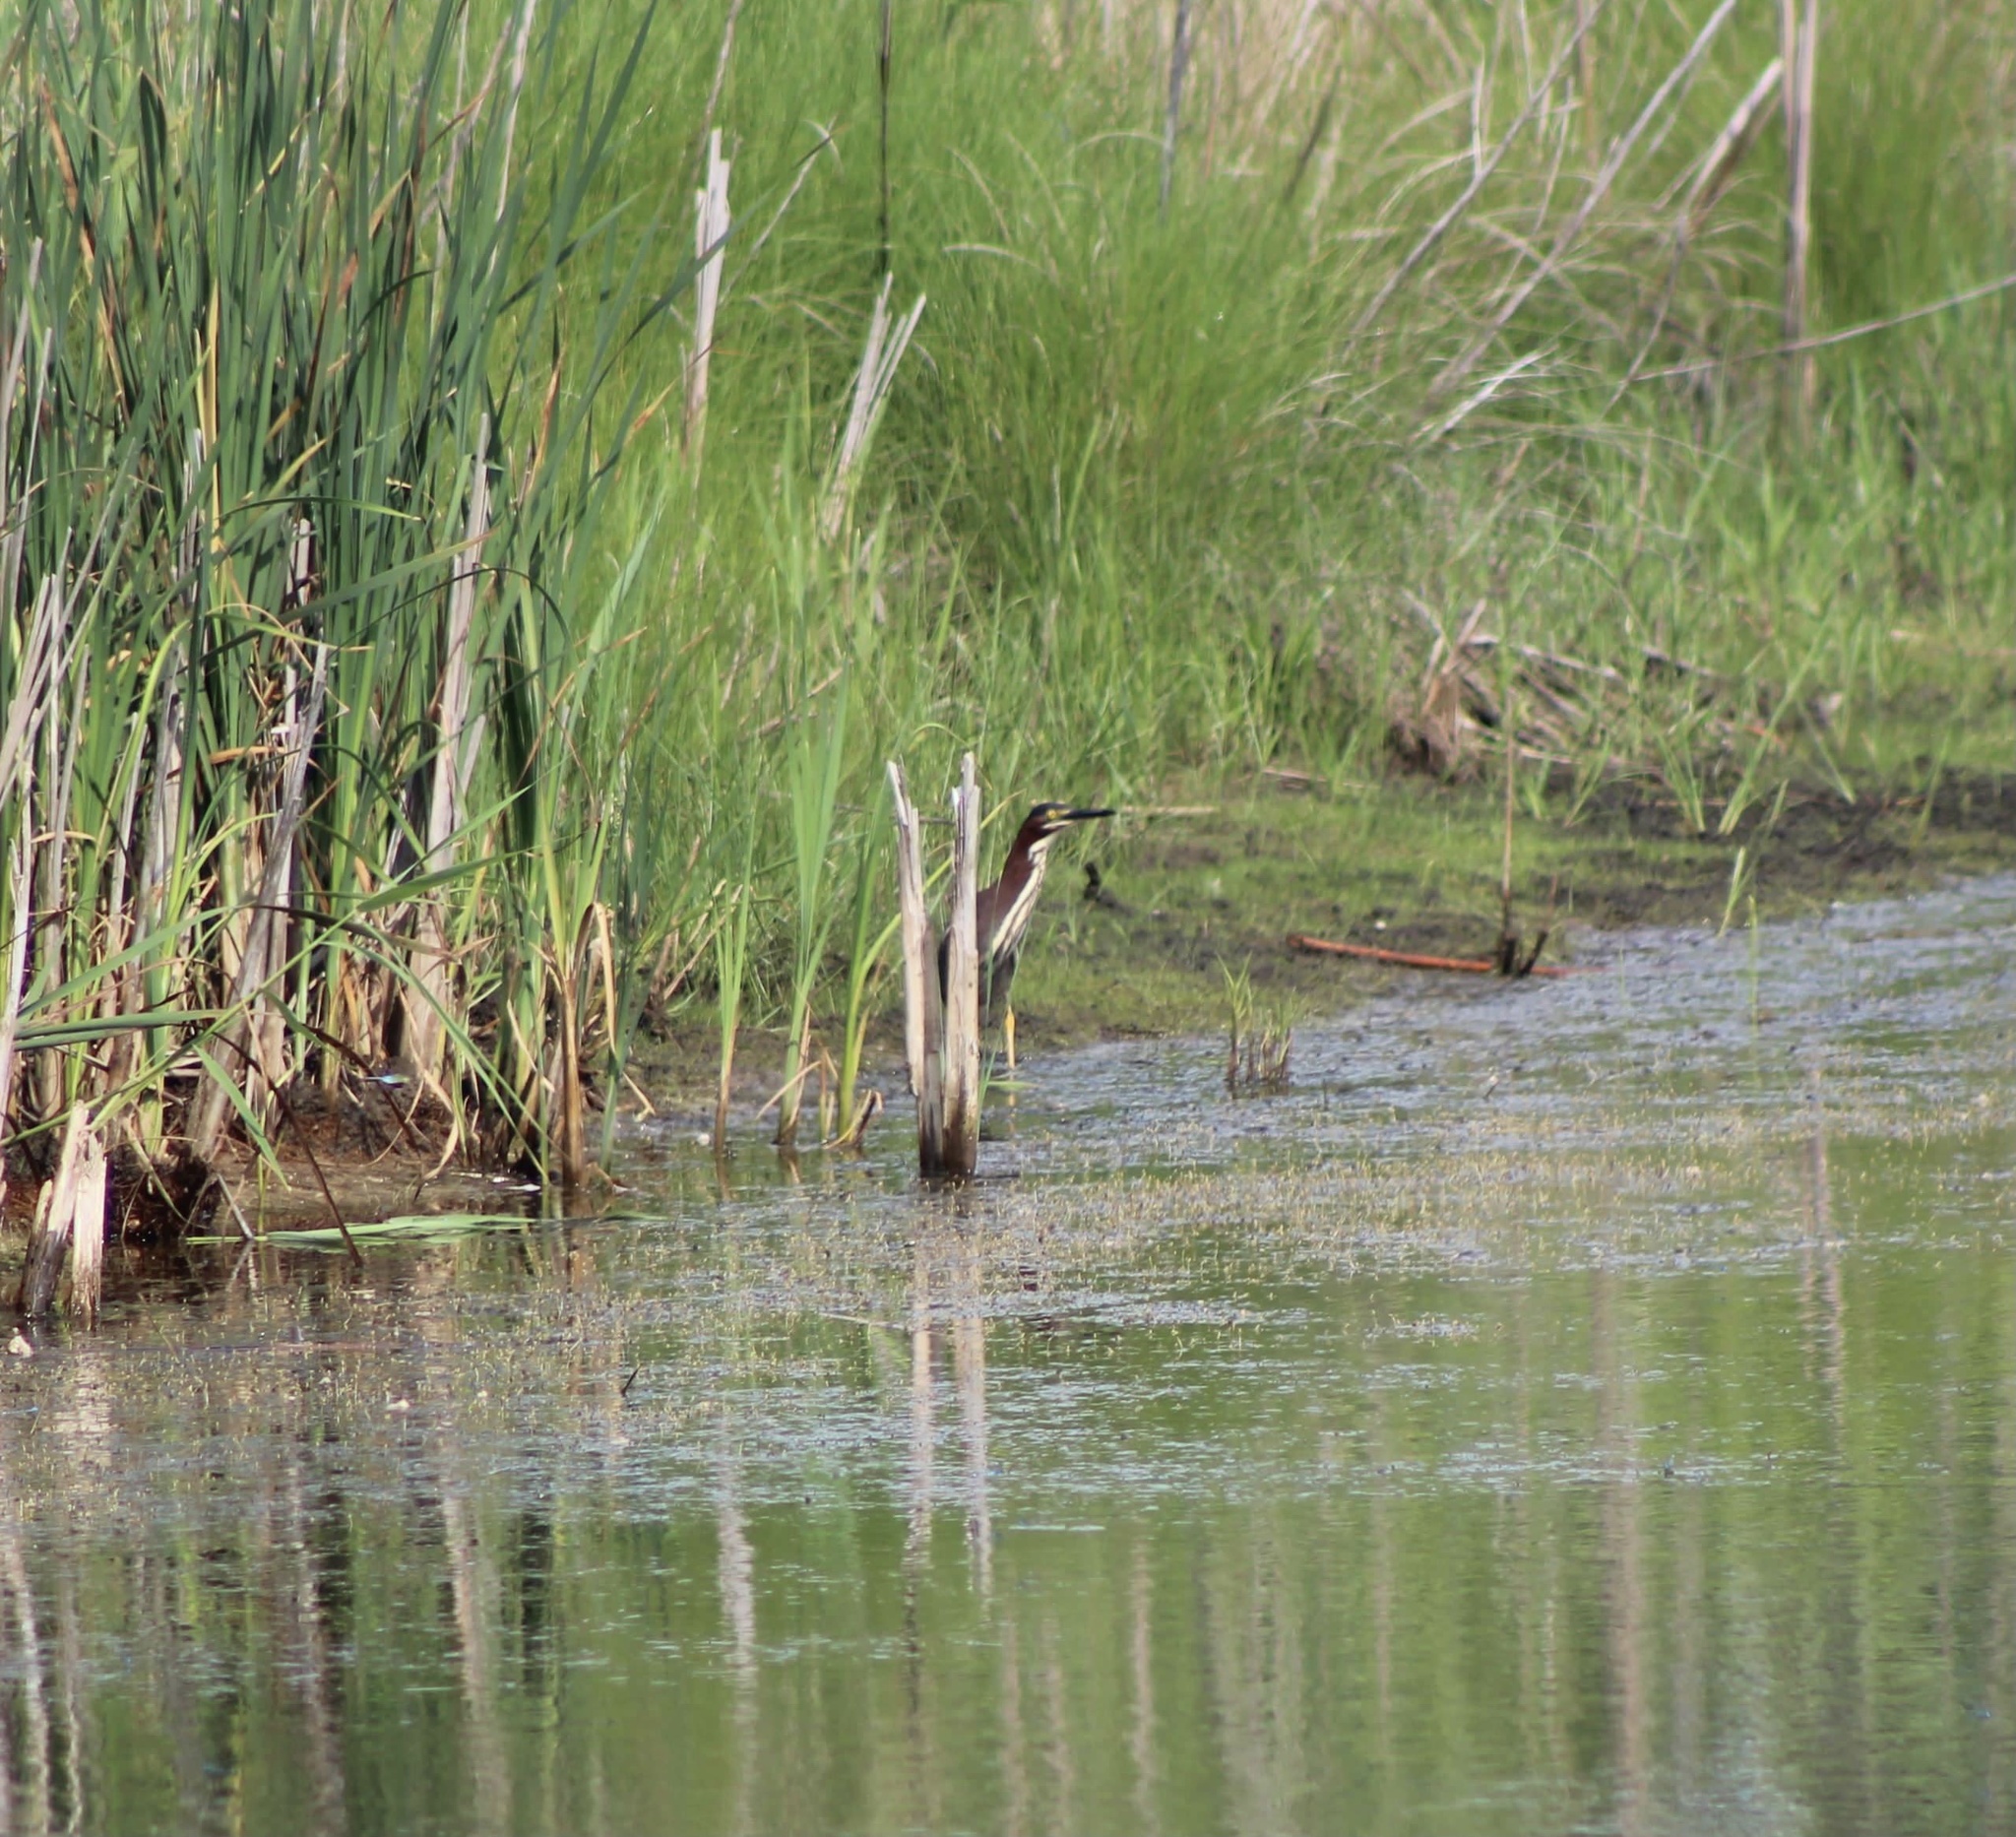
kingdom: Animalia
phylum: Chordata
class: Aves
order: Pelecaniformes
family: Ardeidae
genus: Butorides
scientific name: Butorides virescens
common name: Green heron
